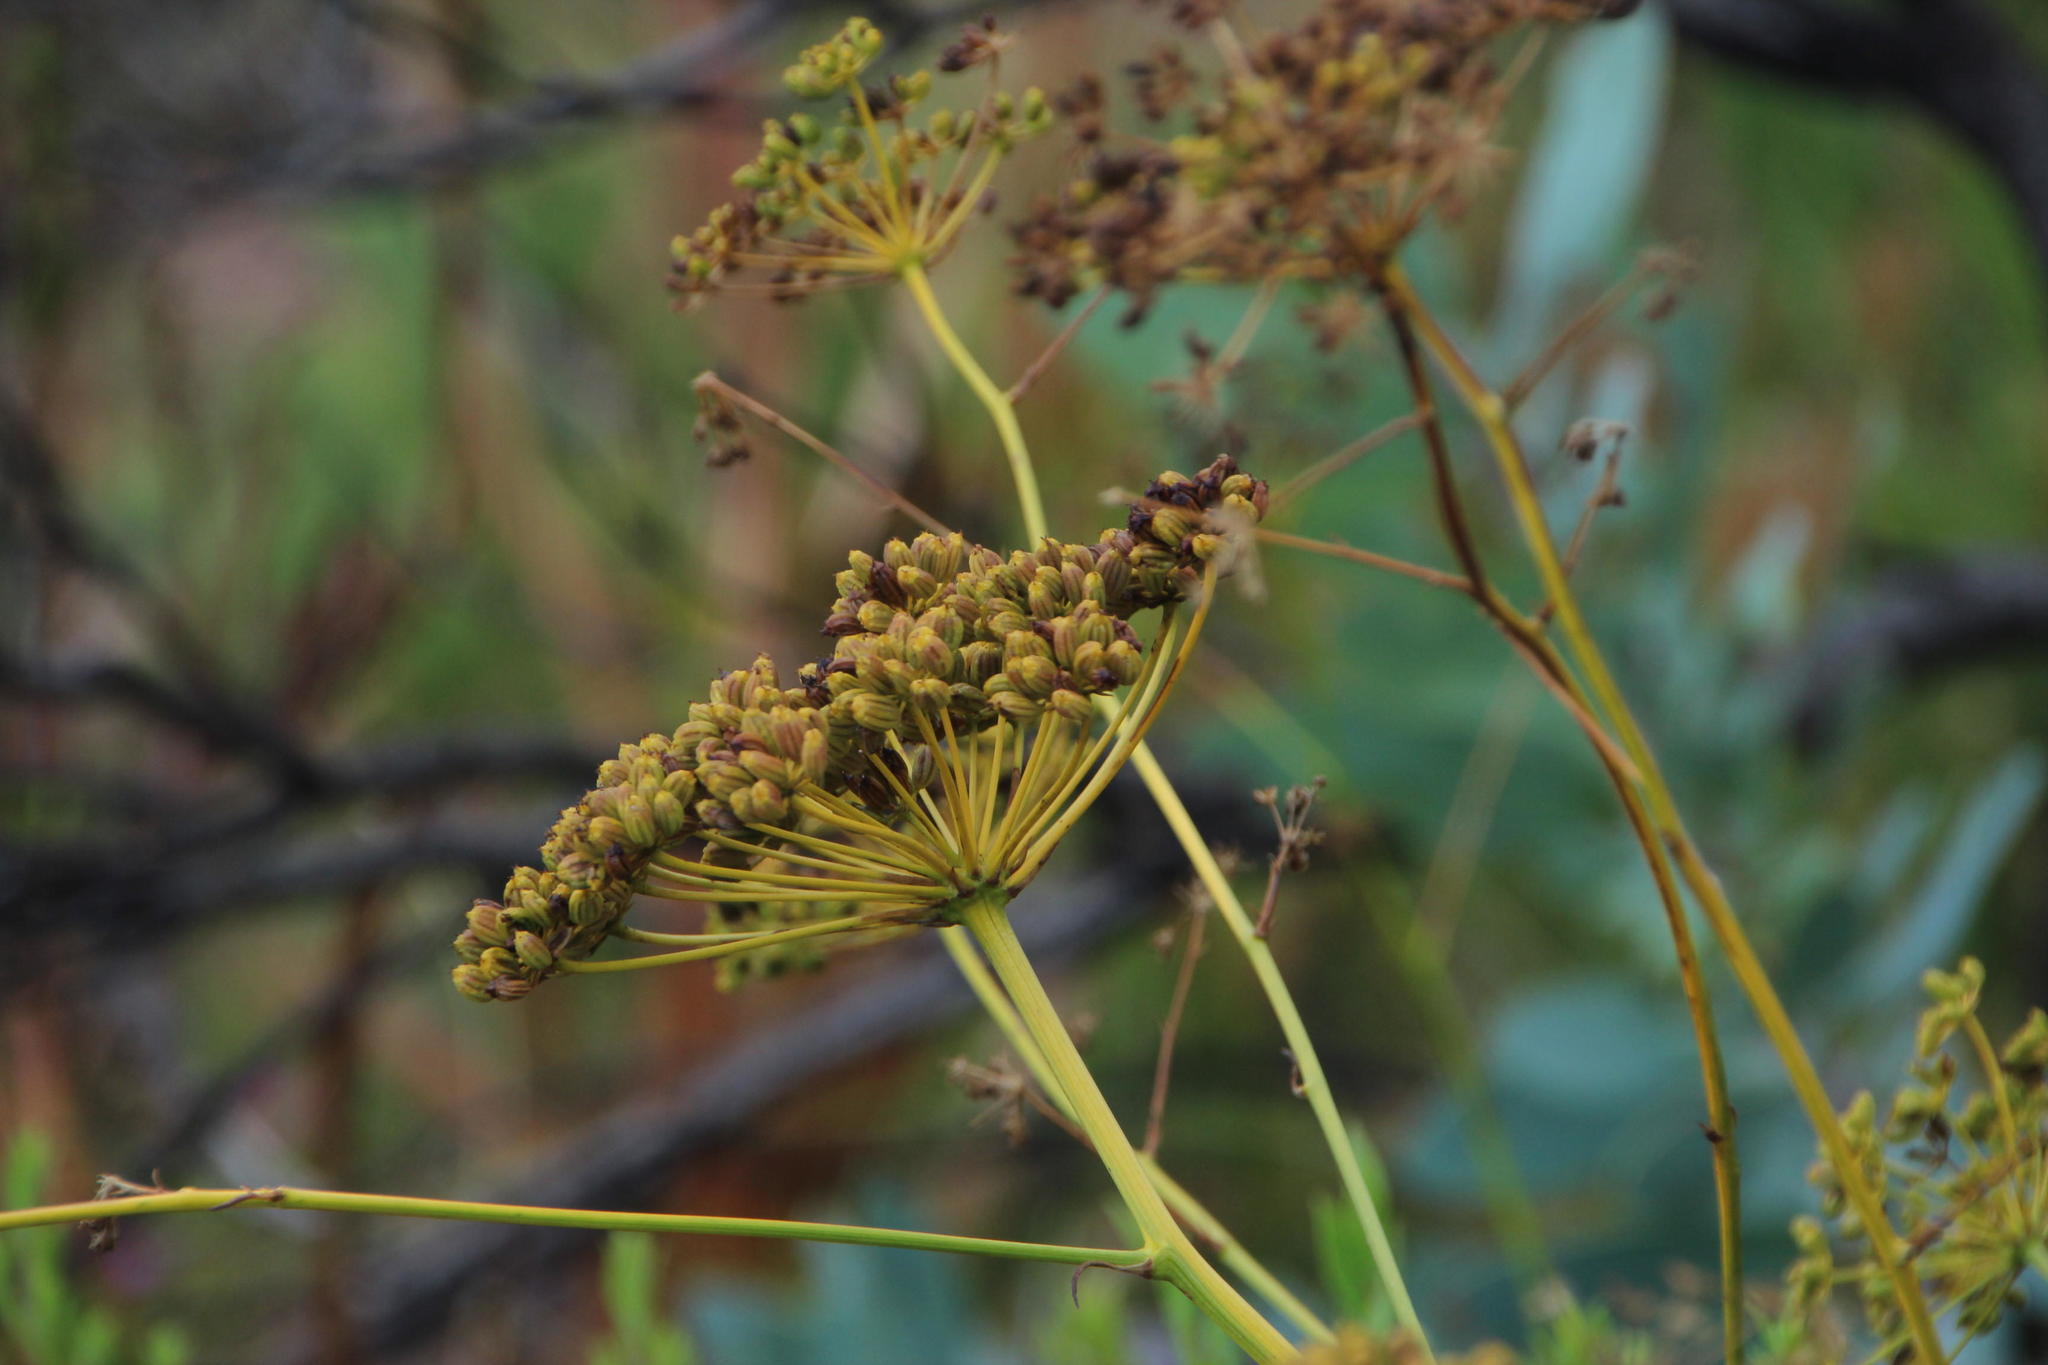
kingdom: Plantae
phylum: Tracheophyta
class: Magnoliopsida
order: Apiales
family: Apiaceae
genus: Glia
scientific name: Glia prolifera
